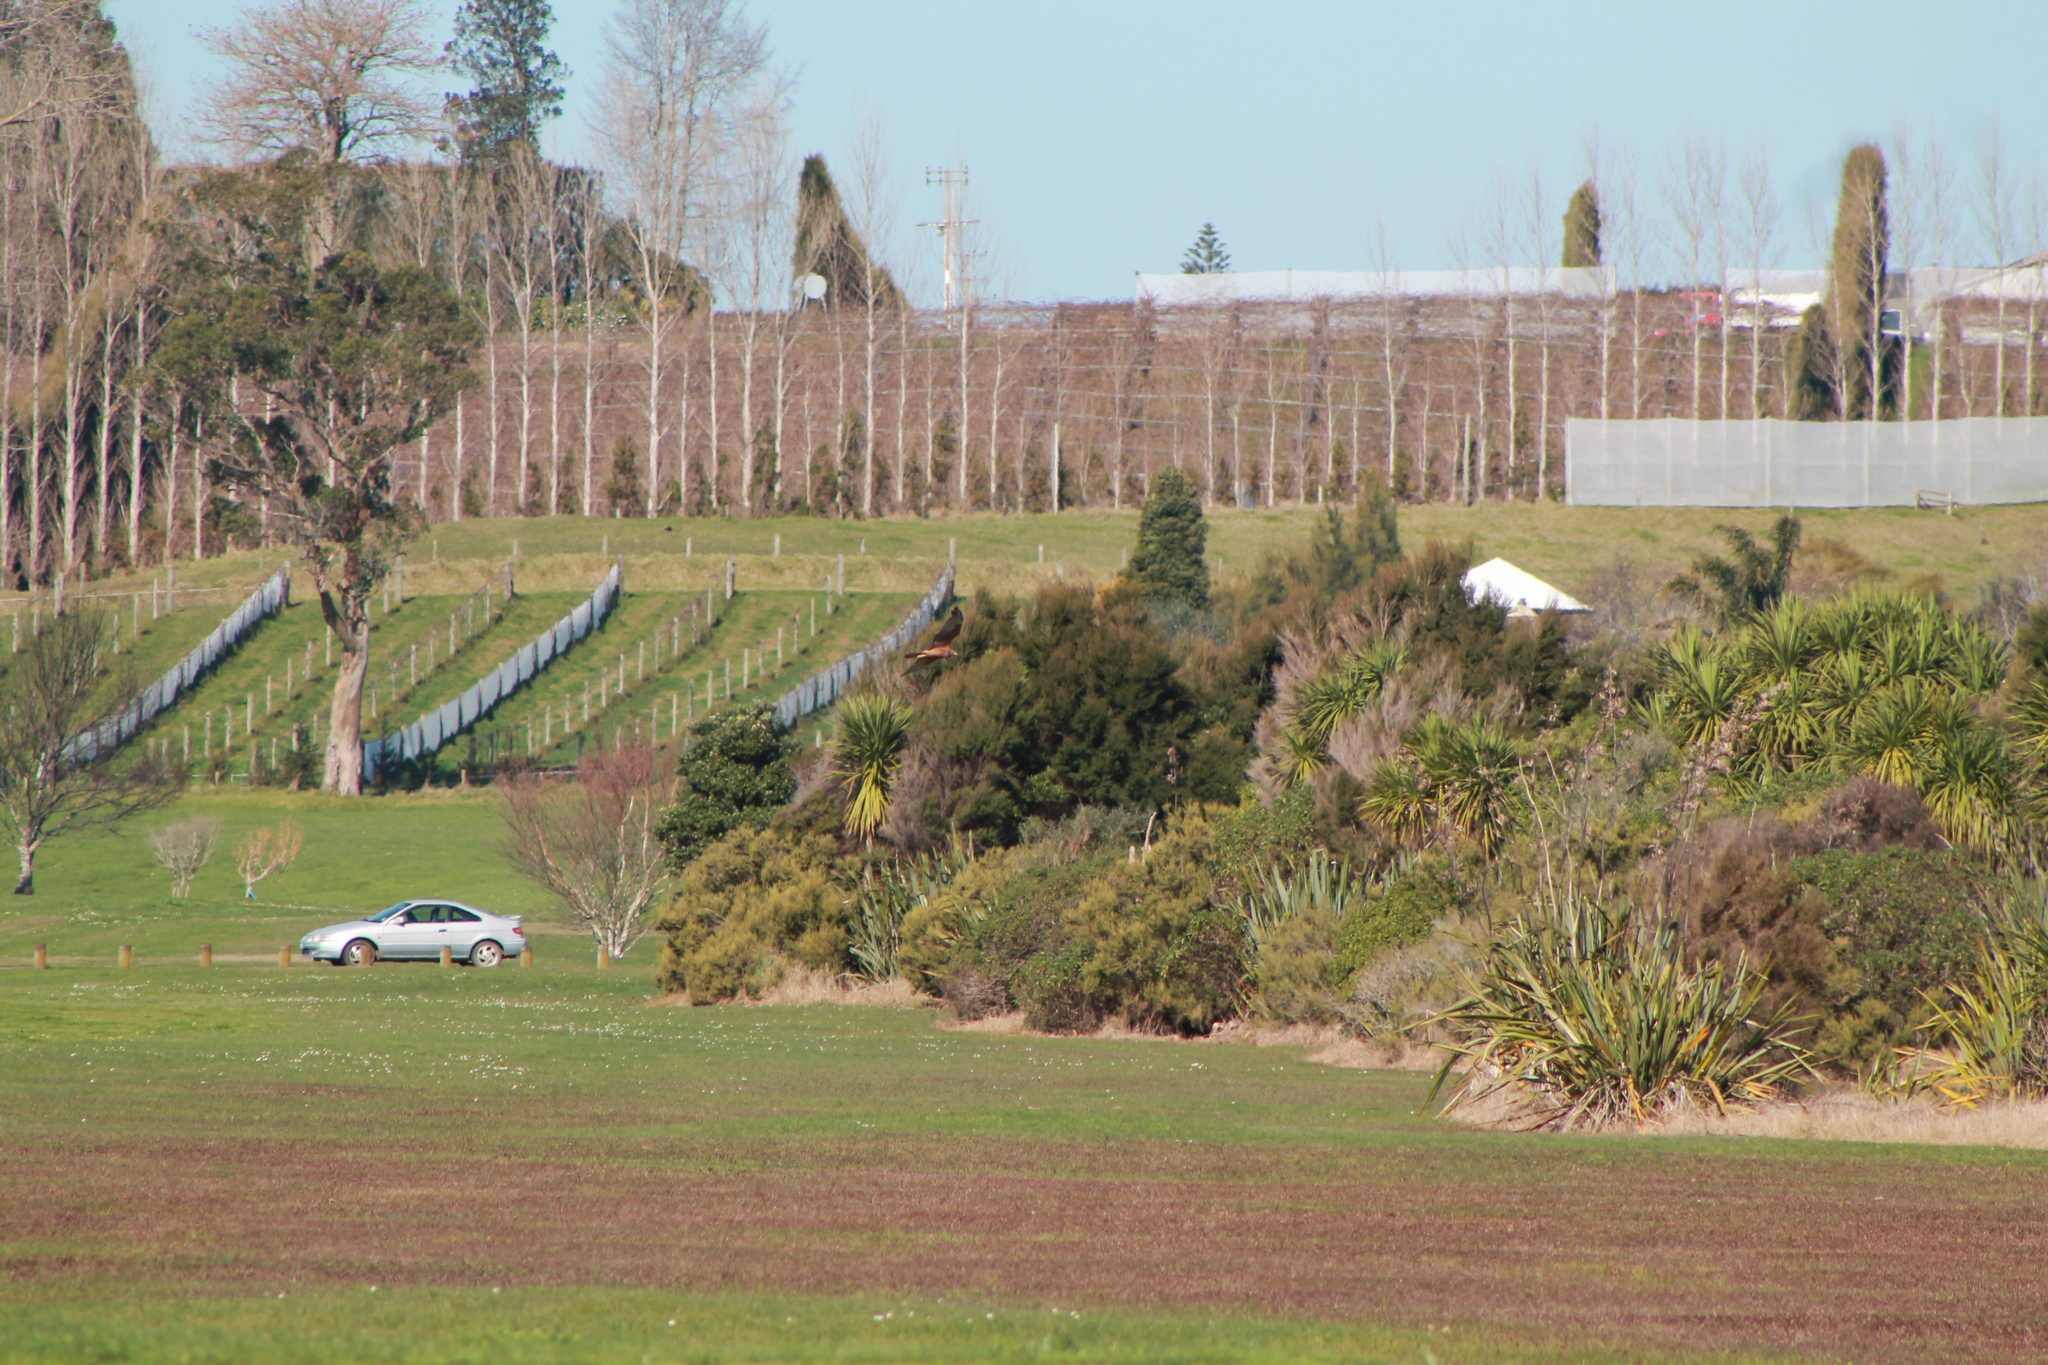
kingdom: Animalia
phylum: Chordata
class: Aves
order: Accipitriformes
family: Accipitridae
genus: Circus
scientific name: Circus approximans
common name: Swamp harrier
